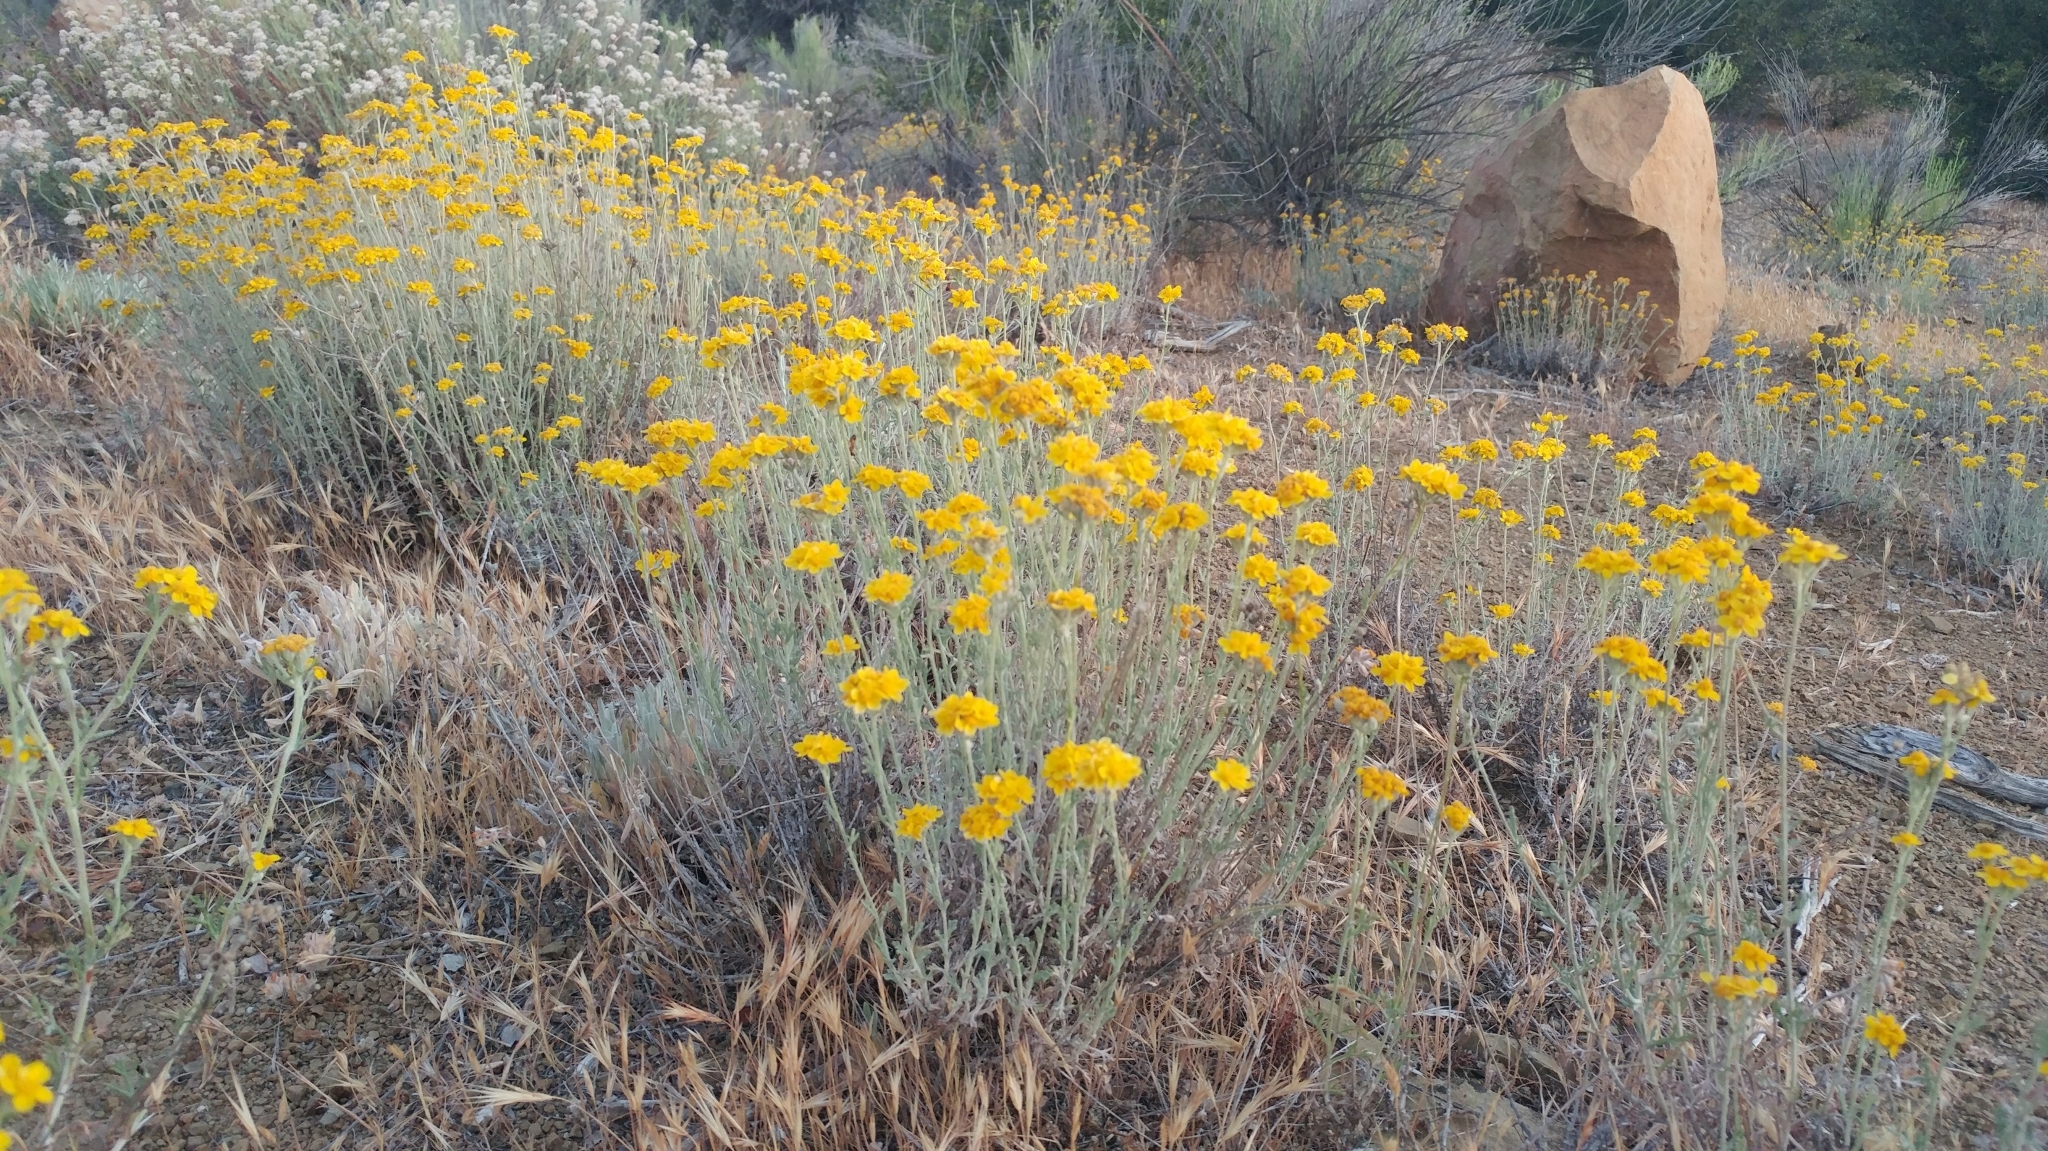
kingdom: Plantae
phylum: Tracheophyta
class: Magnoliopsida
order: Asterales
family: Asteraceae
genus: Eriophyllum
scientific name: Eriophyllum confertiflorum
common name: Golden-yarrow
